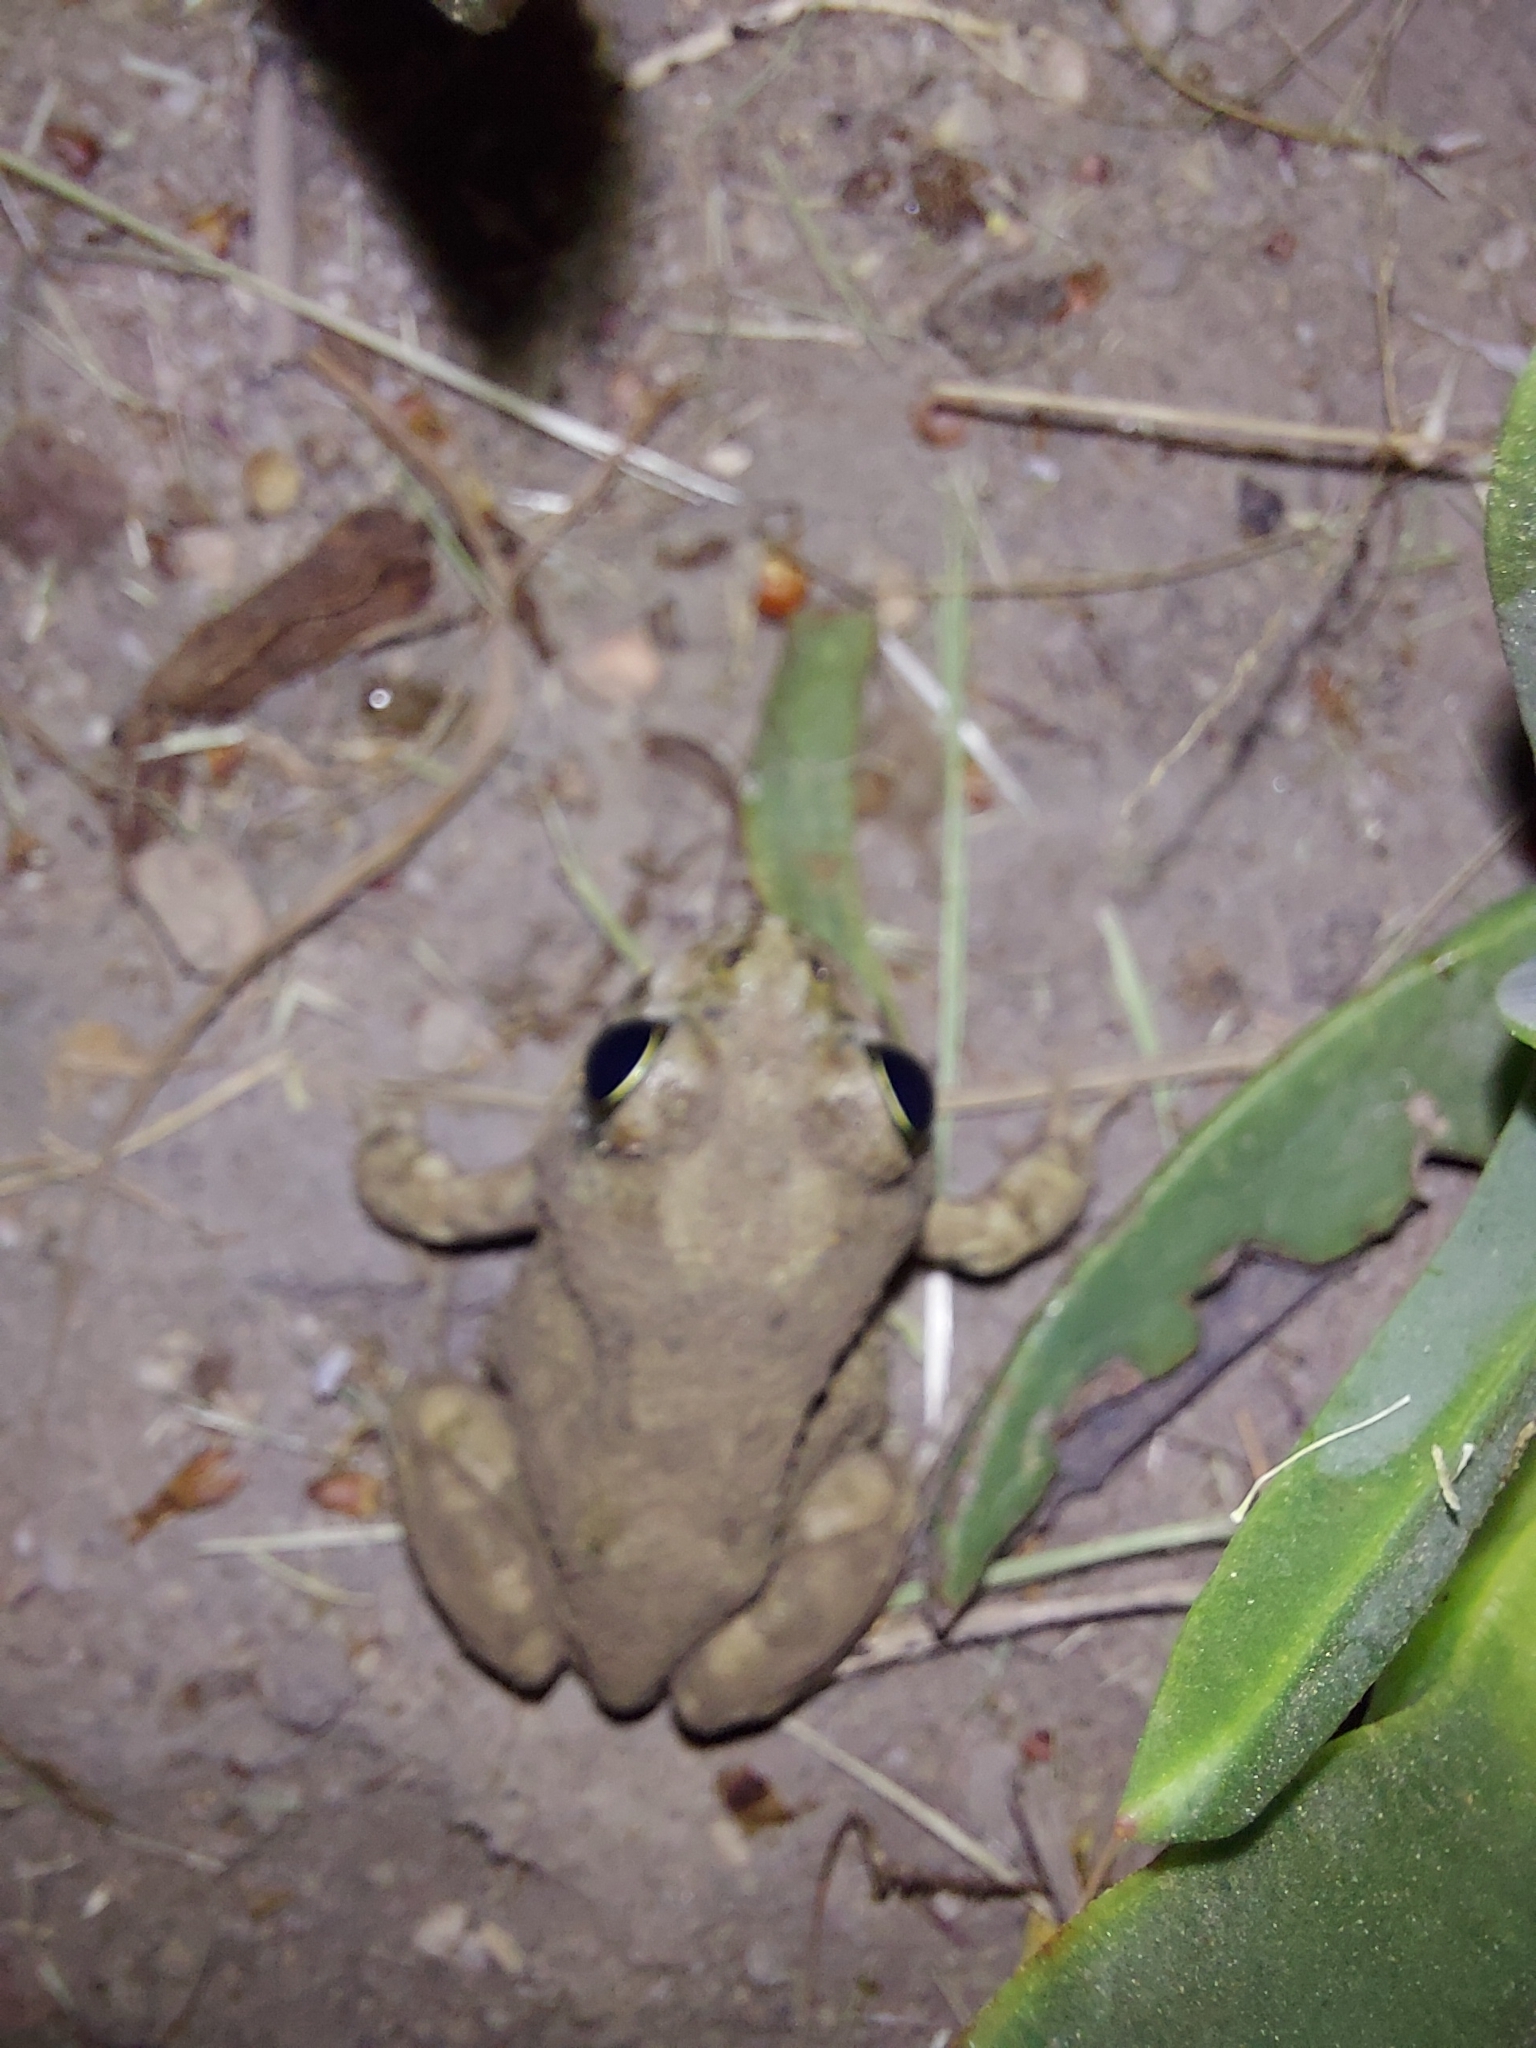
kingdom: Animalia
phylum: Chordata
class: Amphibia
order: Anura
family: Pyxicephalidae
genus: Tomopterna
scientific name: Tomopterna delalandii
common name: Delalande's burrowing bullfrog
